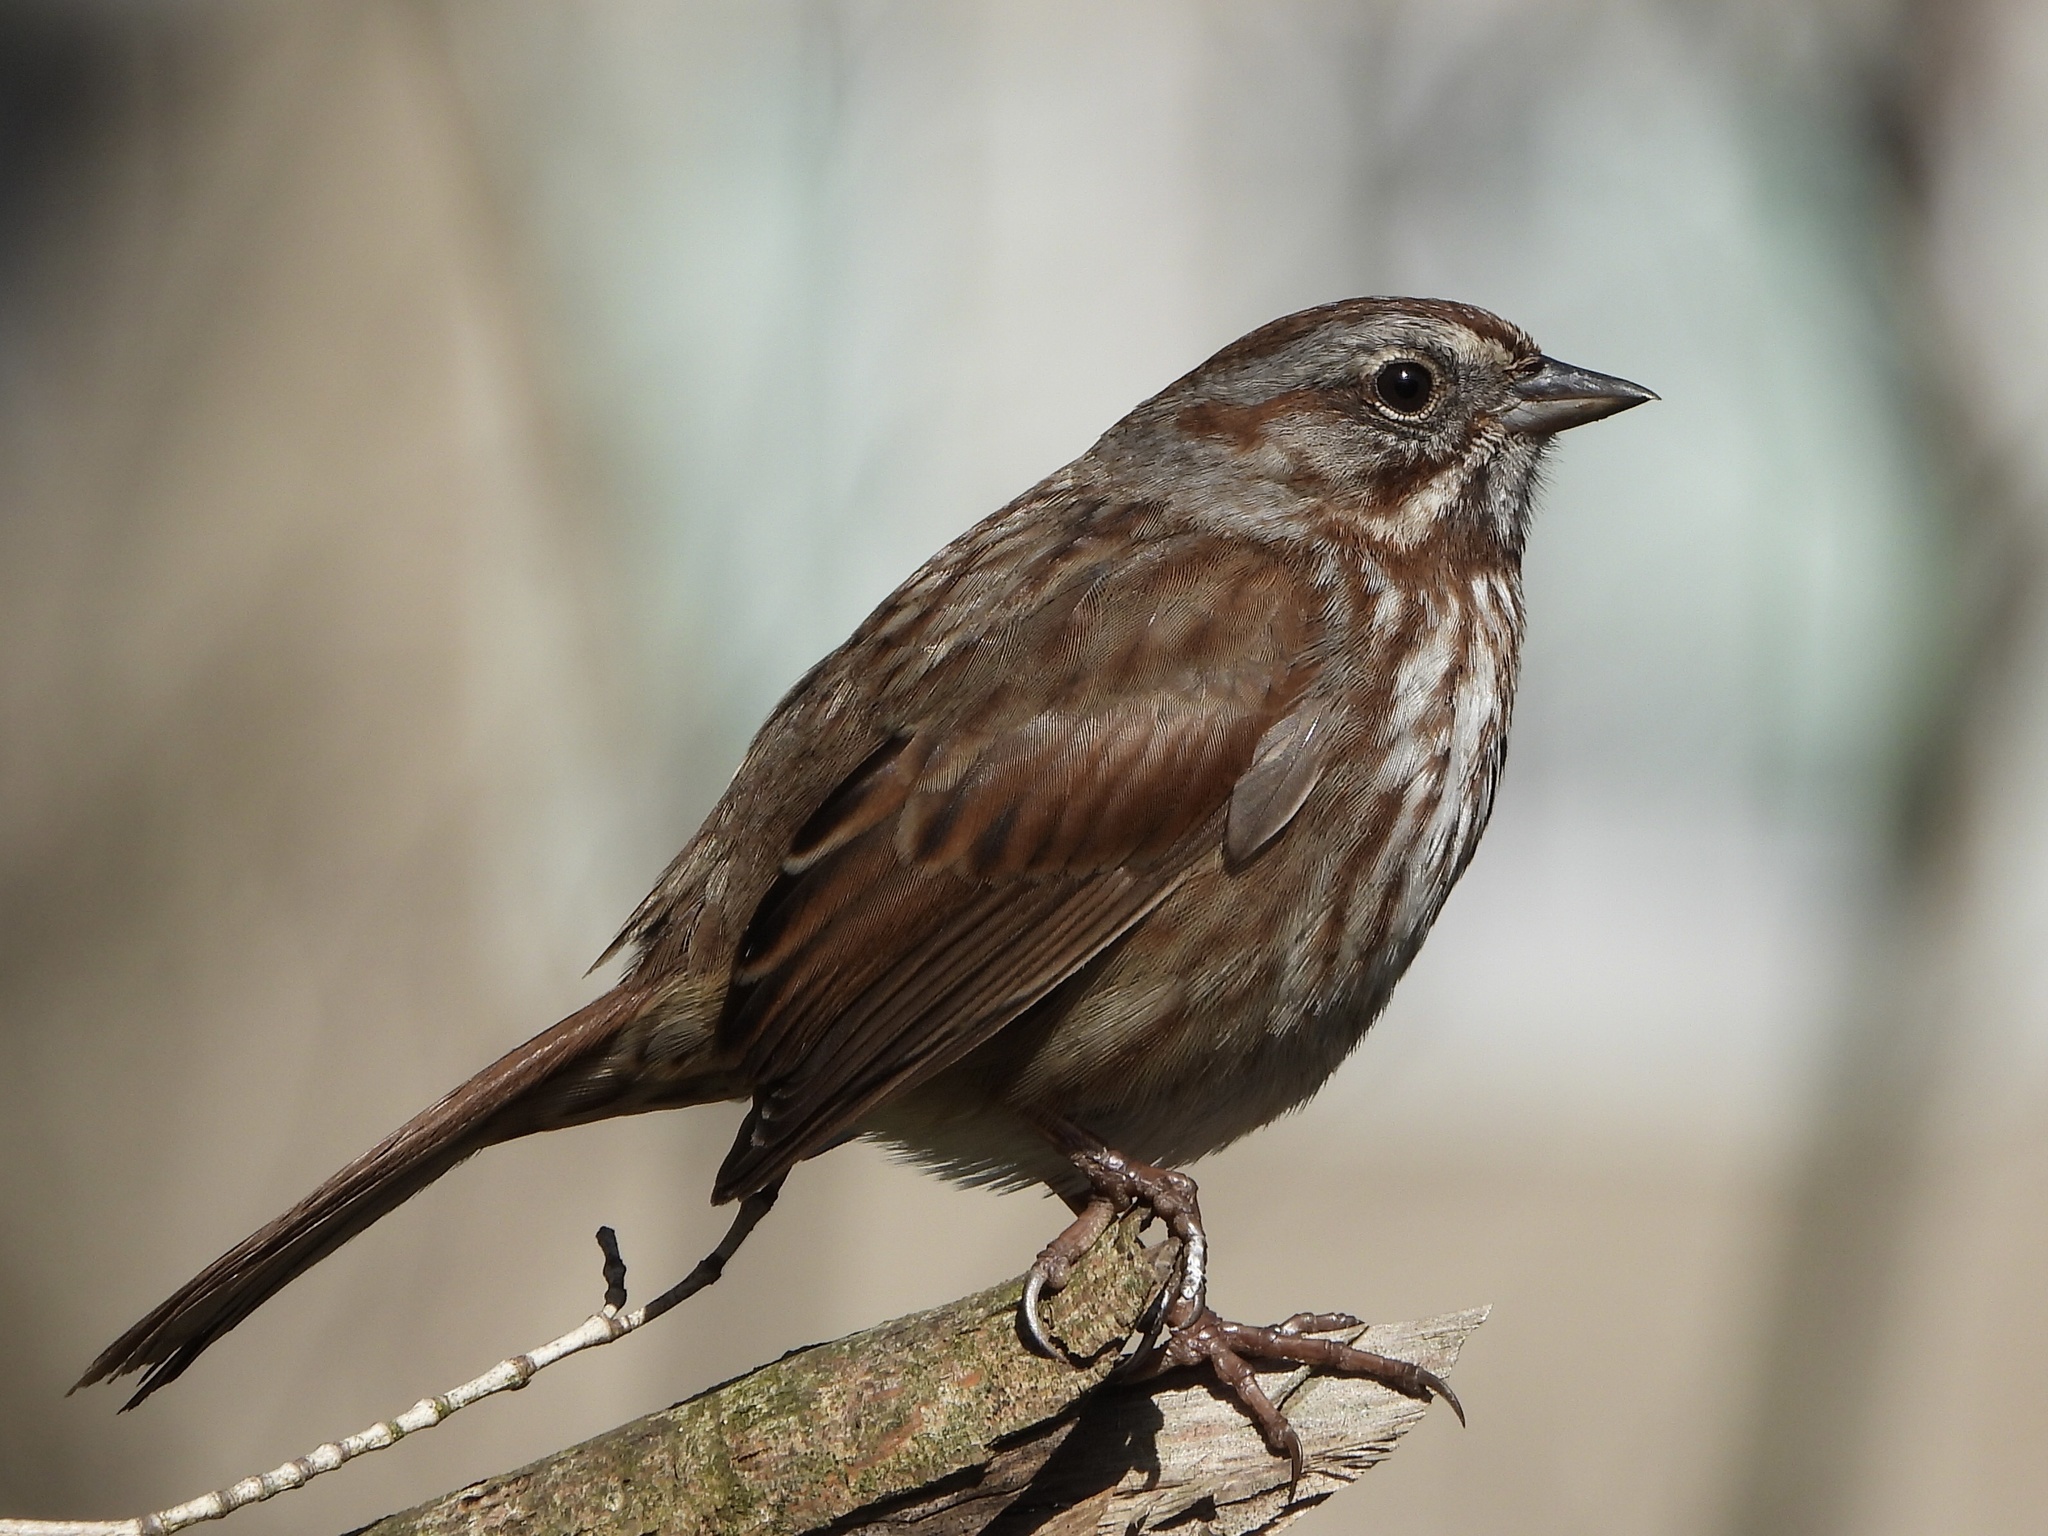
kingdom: Animalia
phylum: Chordata
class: Aves
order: Passeriformes
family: Passerellidae
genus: Melospiza
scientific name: Melospiza melodia
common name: Song sparrow
